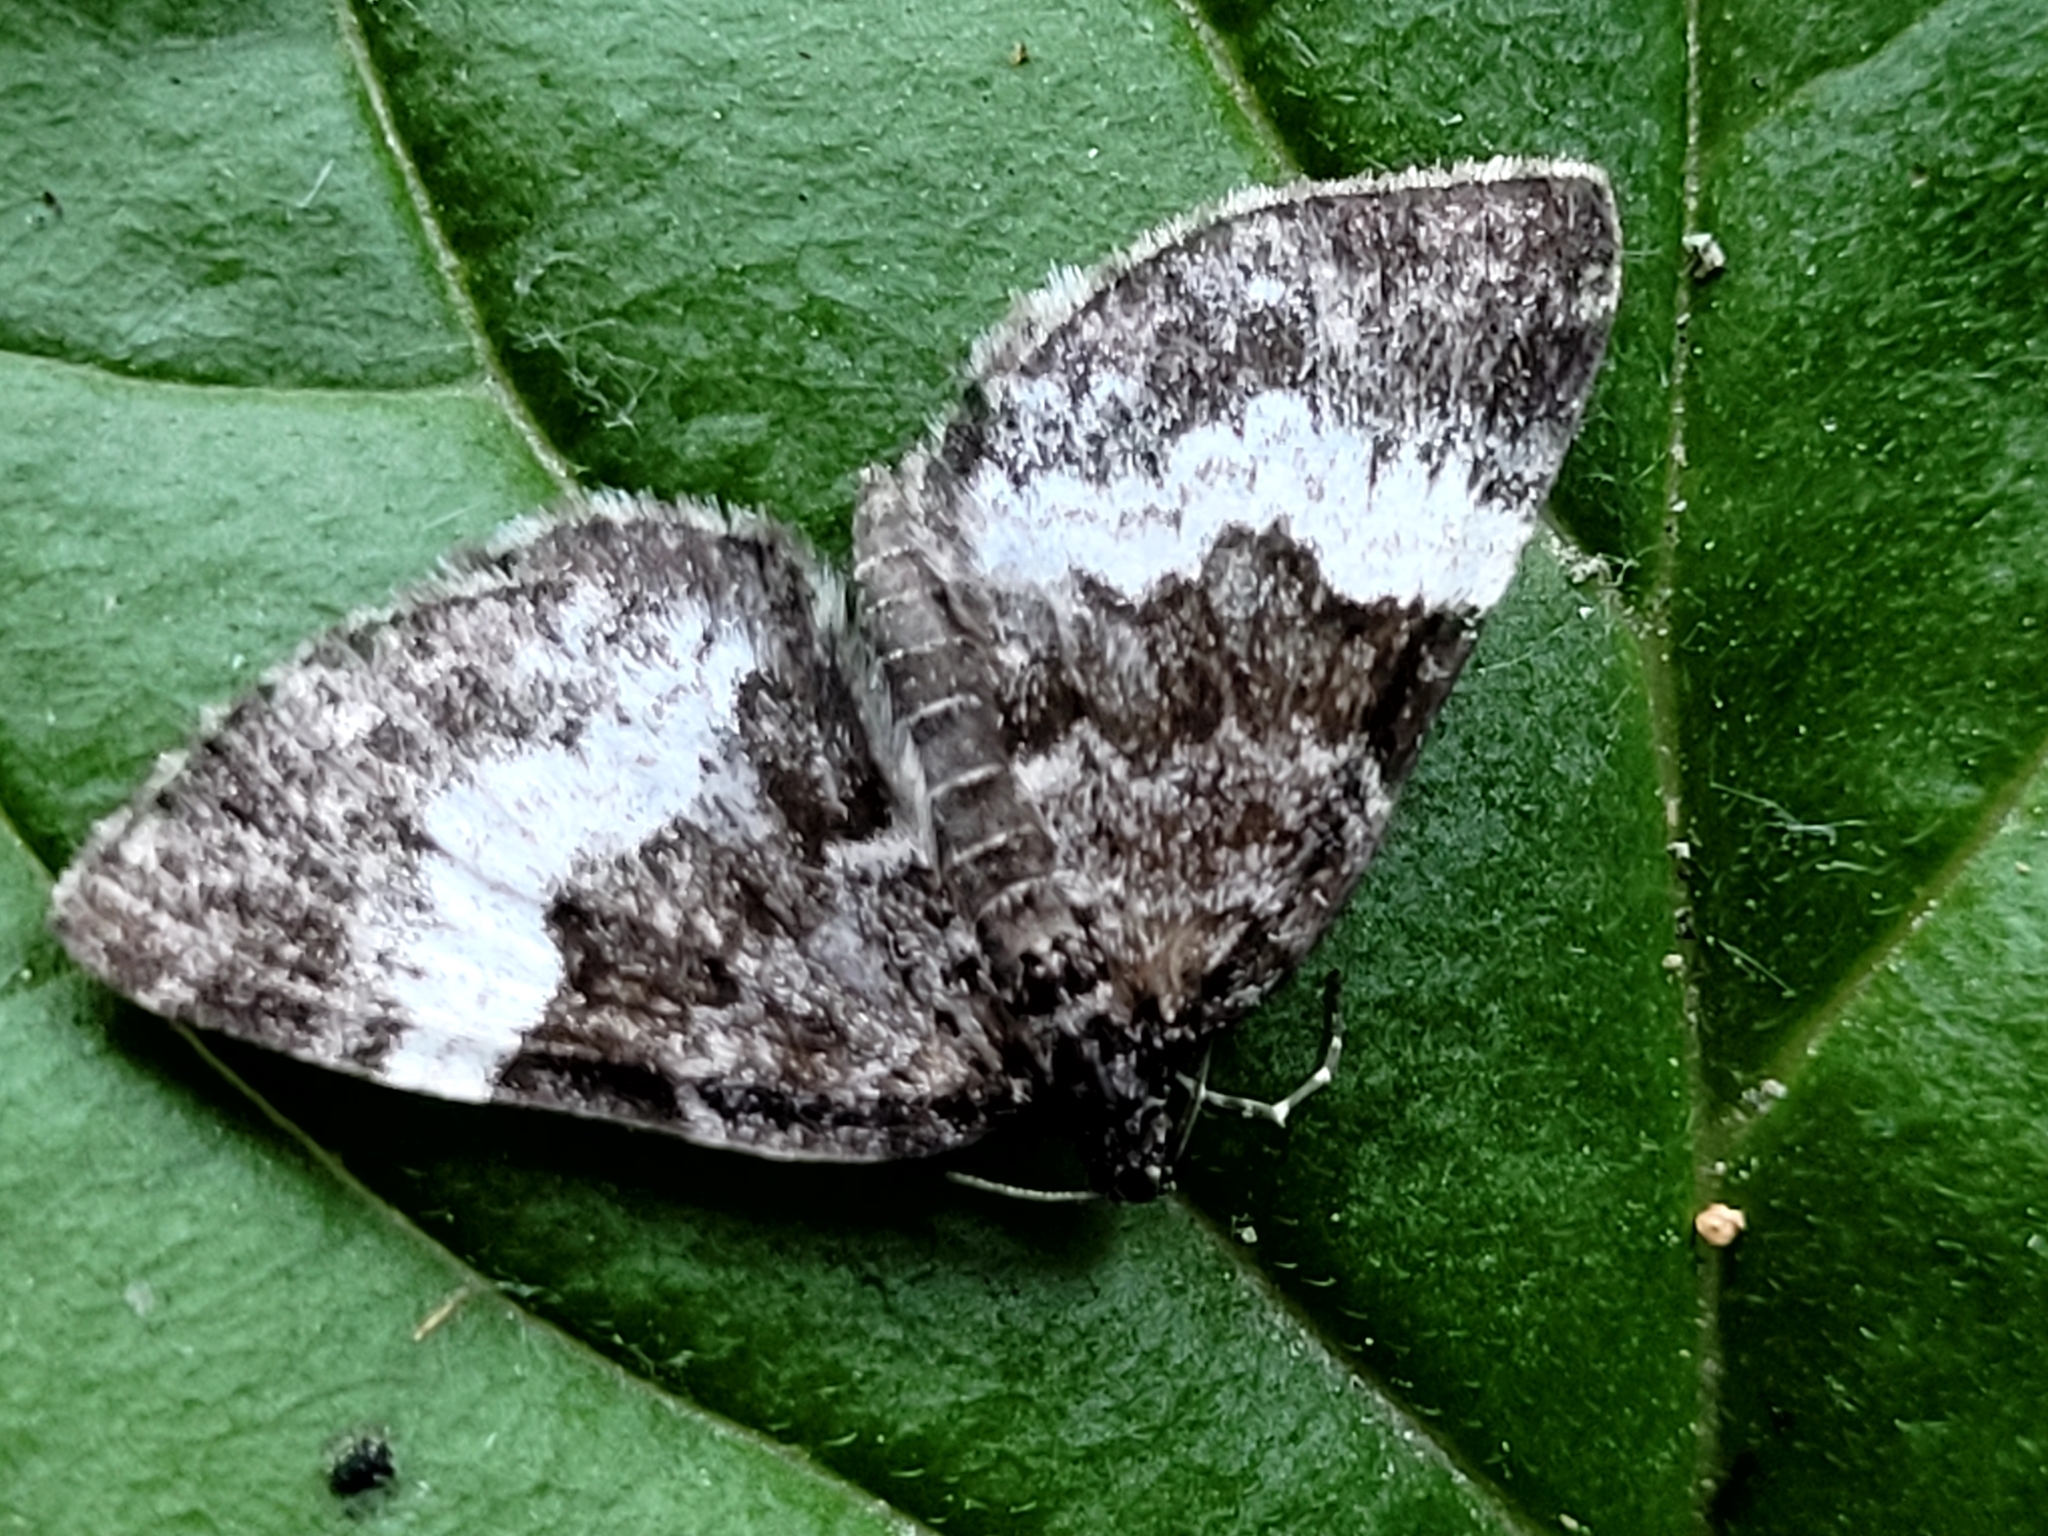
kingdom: Animalia
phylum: Arthropoda
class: Insecta
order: Lepidoptera
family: Geometridae
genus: Spargania
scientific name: Spargania luctuata
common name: White-banded carpet
